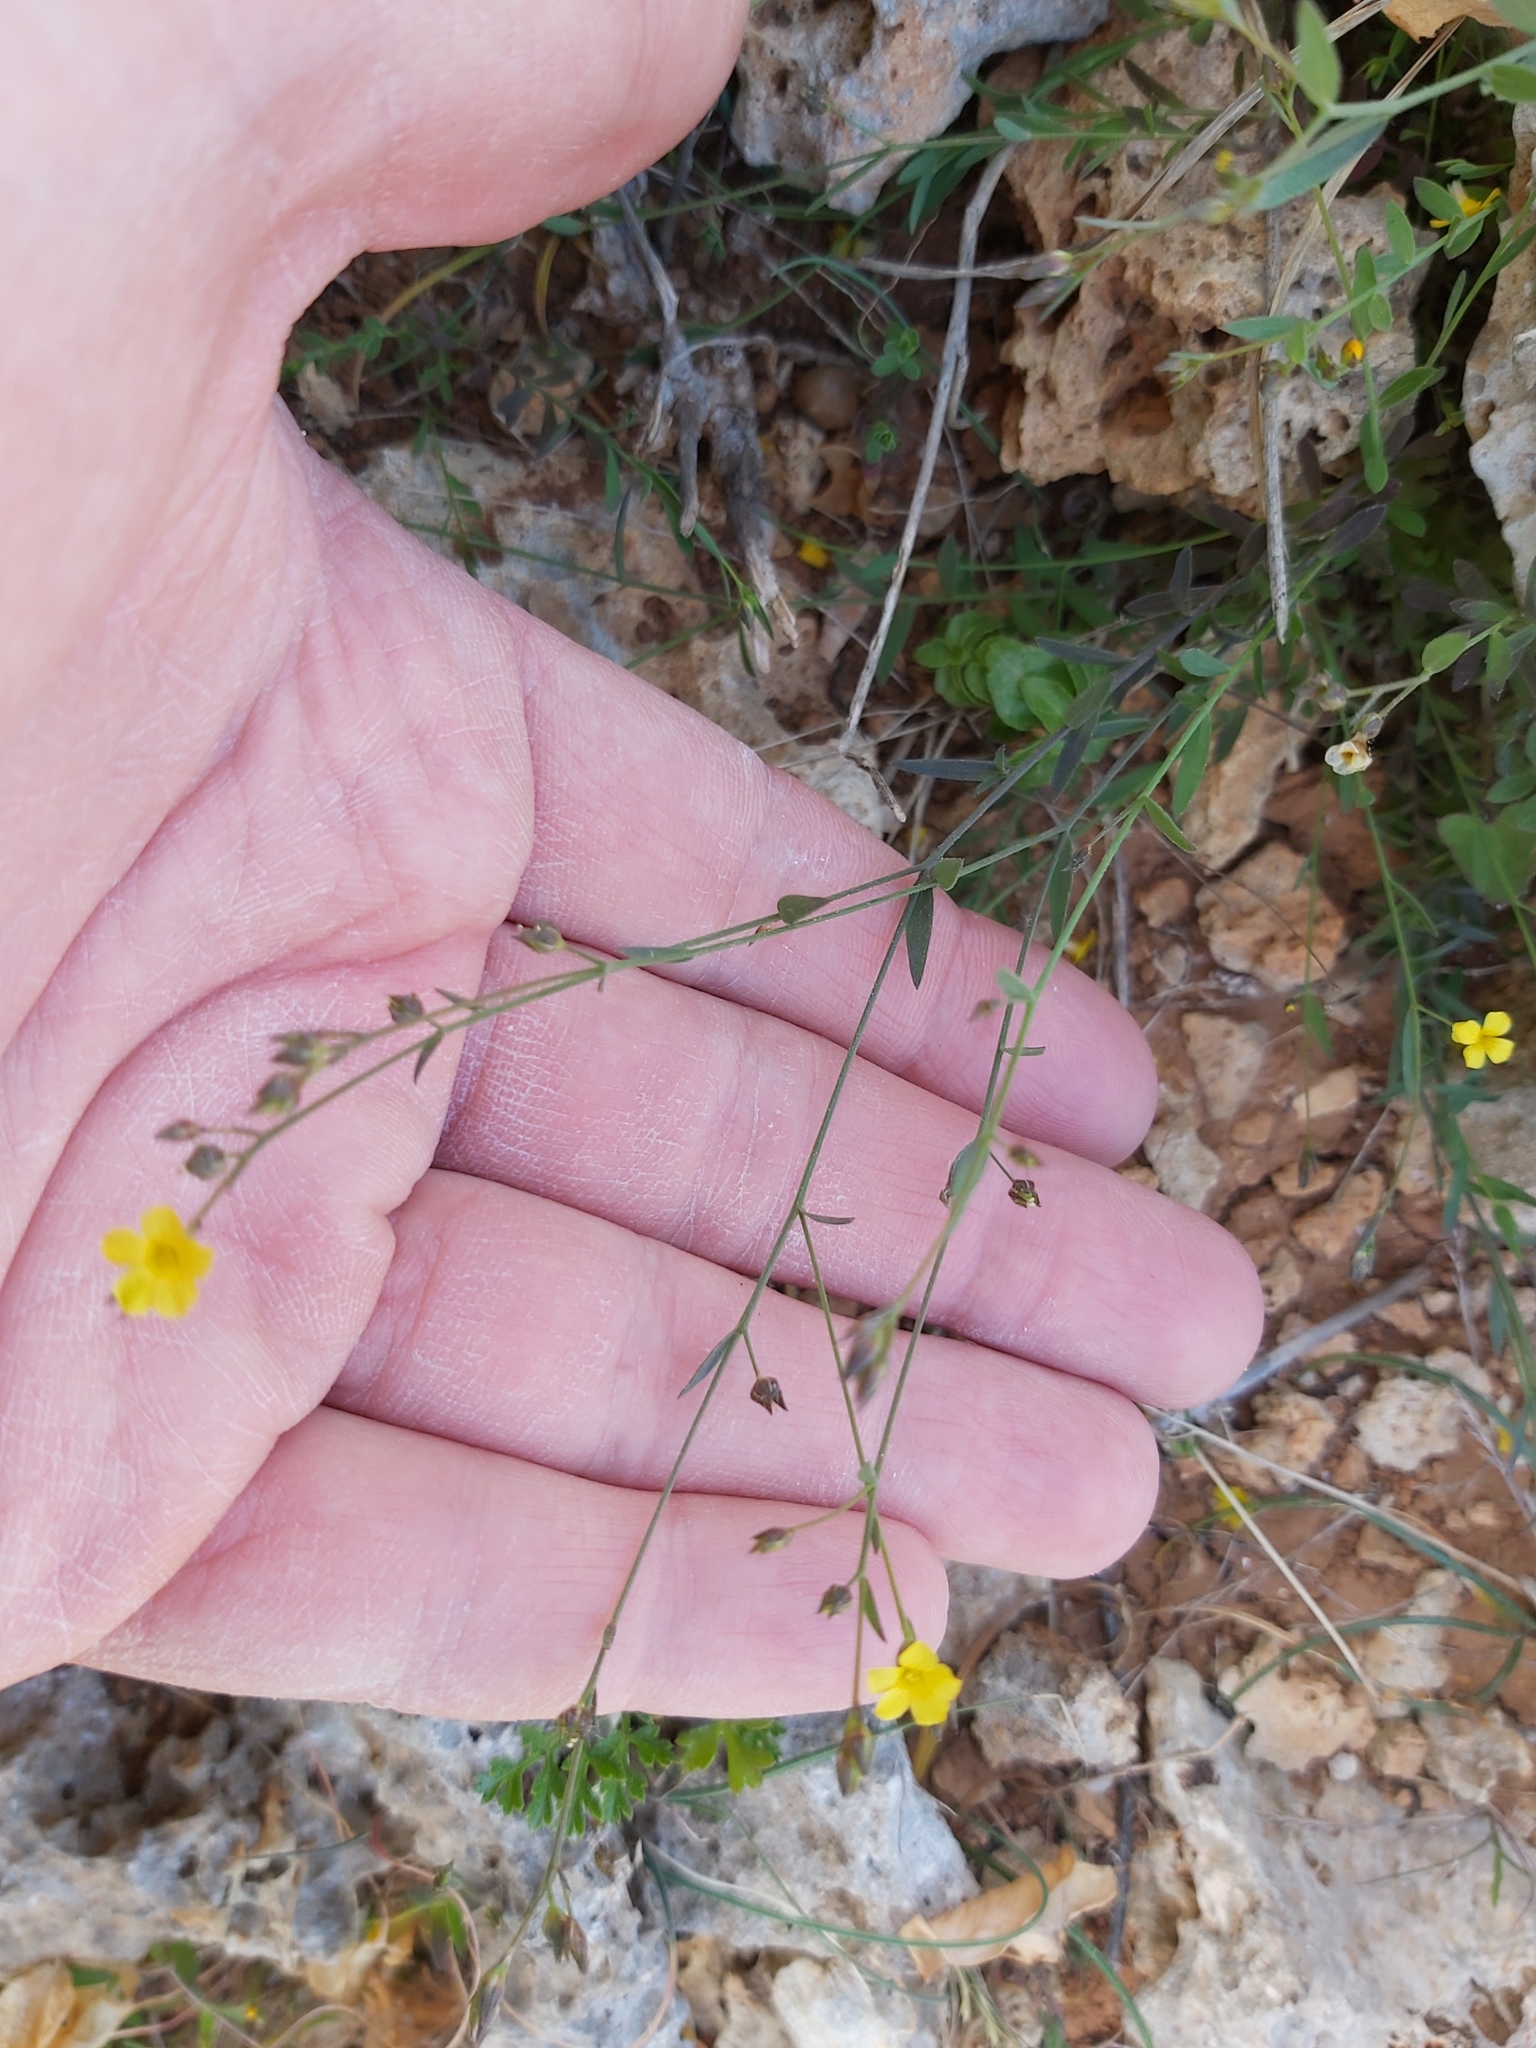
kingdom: Plantae
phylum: Tracheophyta
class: Magnoliopsida
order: Malpighiales
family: Linaceae
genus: Linum
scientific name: Linum trigynum
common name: French flax
